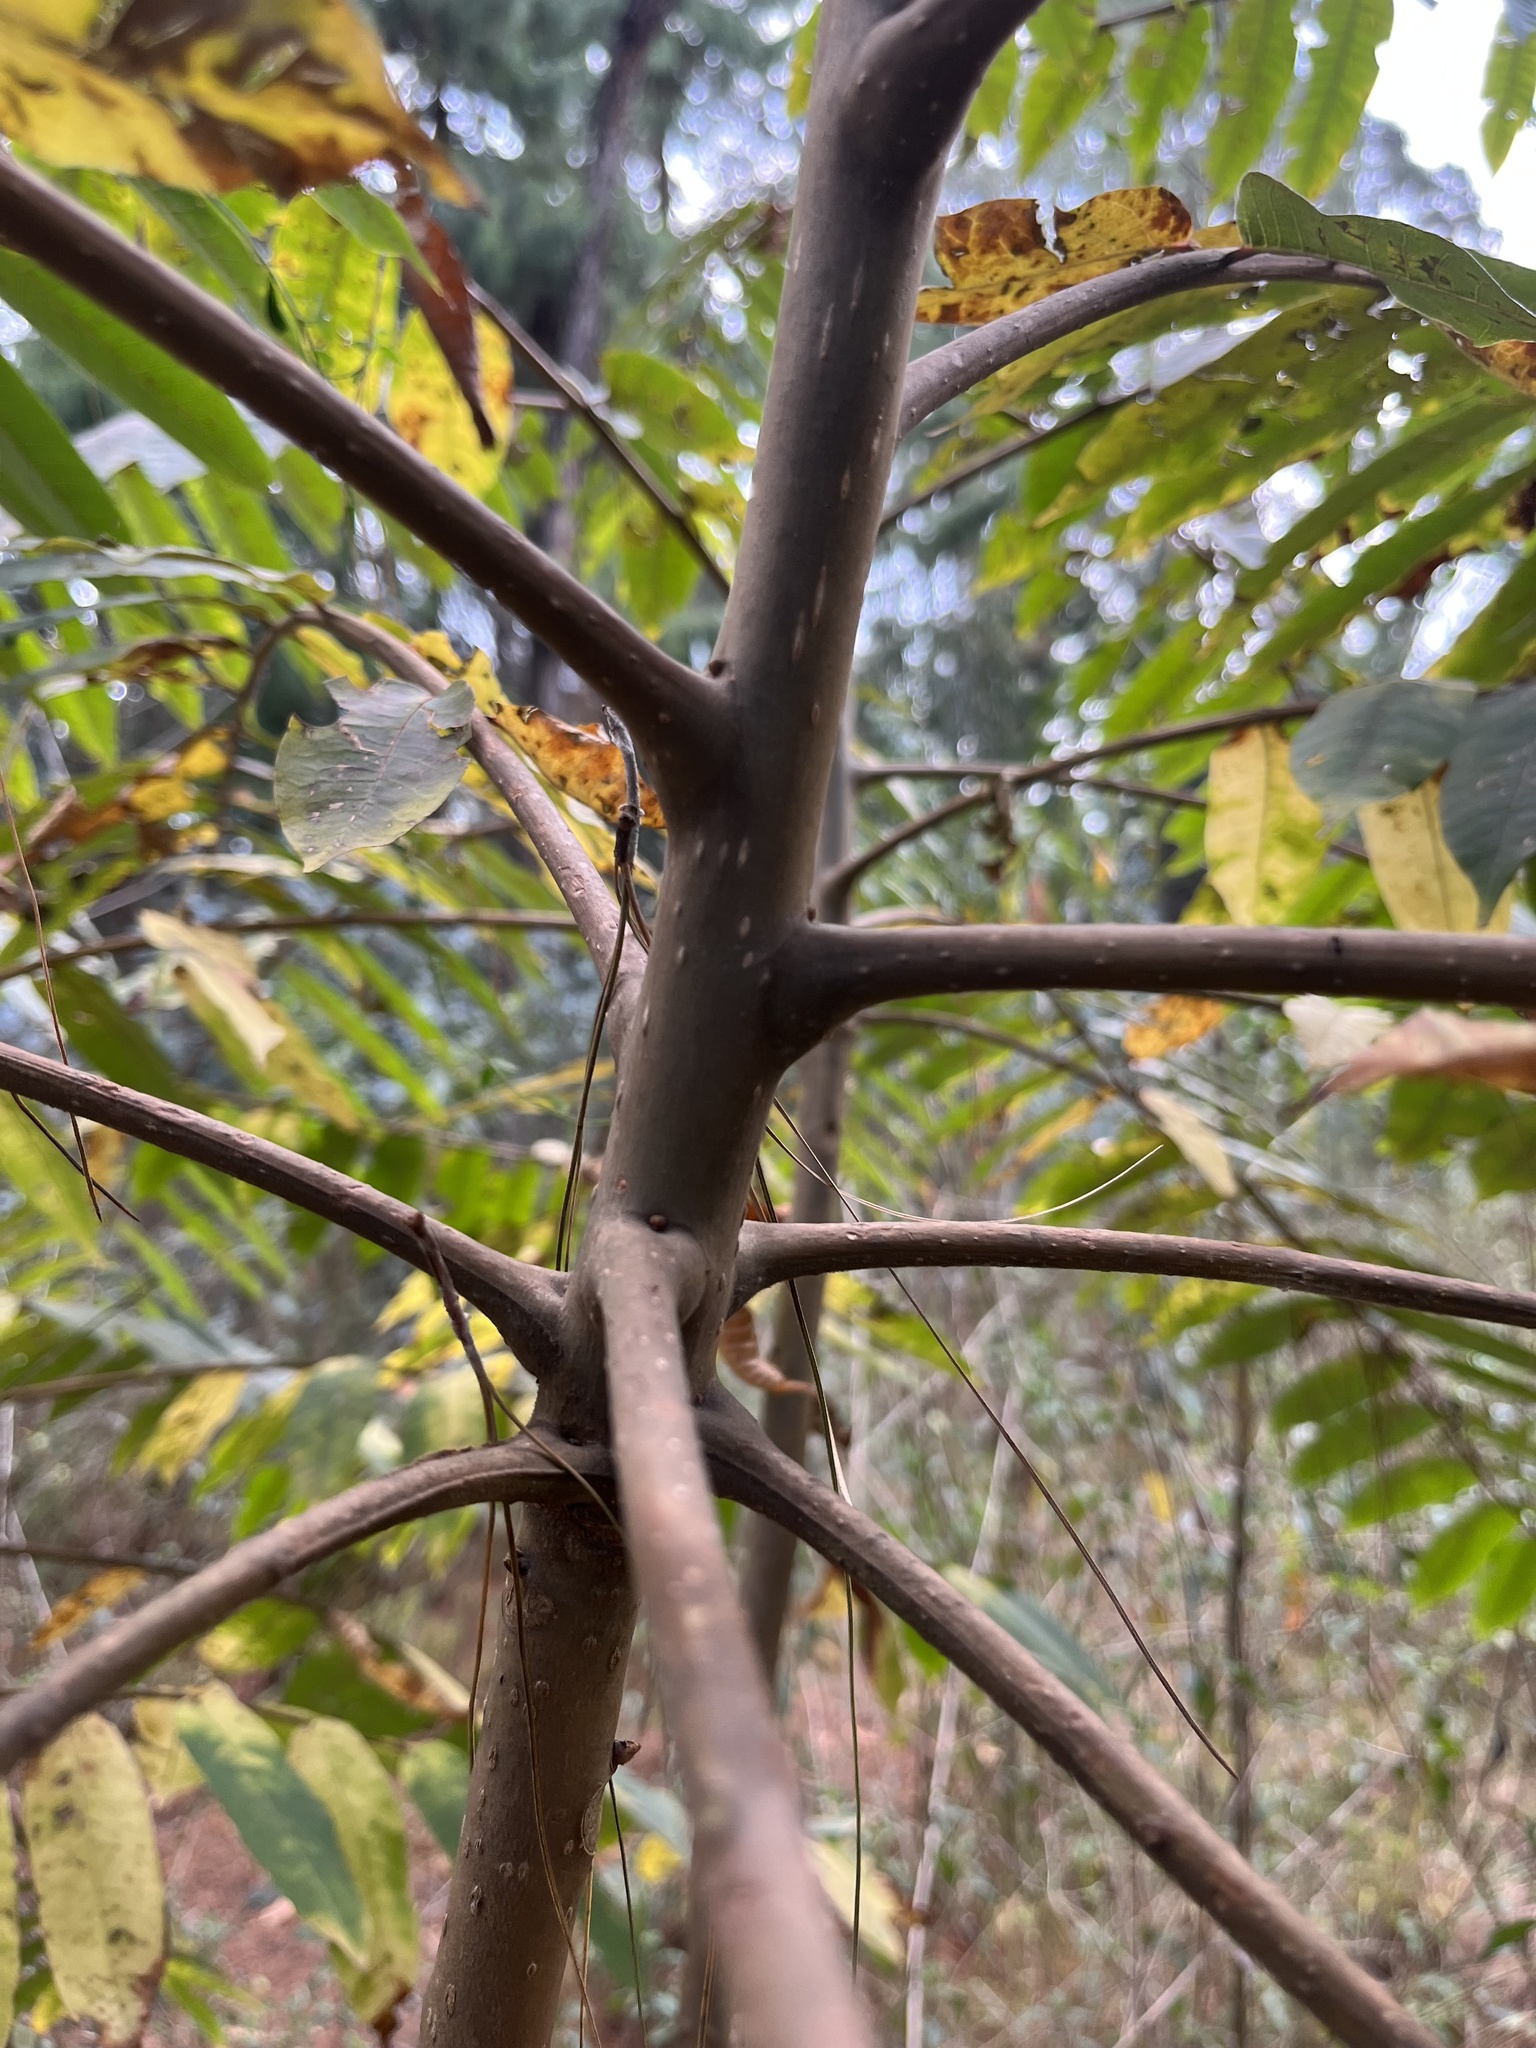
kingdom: Plantae
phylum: Tracheophyta
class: Magnoliopsida
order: Sapindales
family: Meliaceae
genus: Cedrela
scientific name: Cedrela montana
